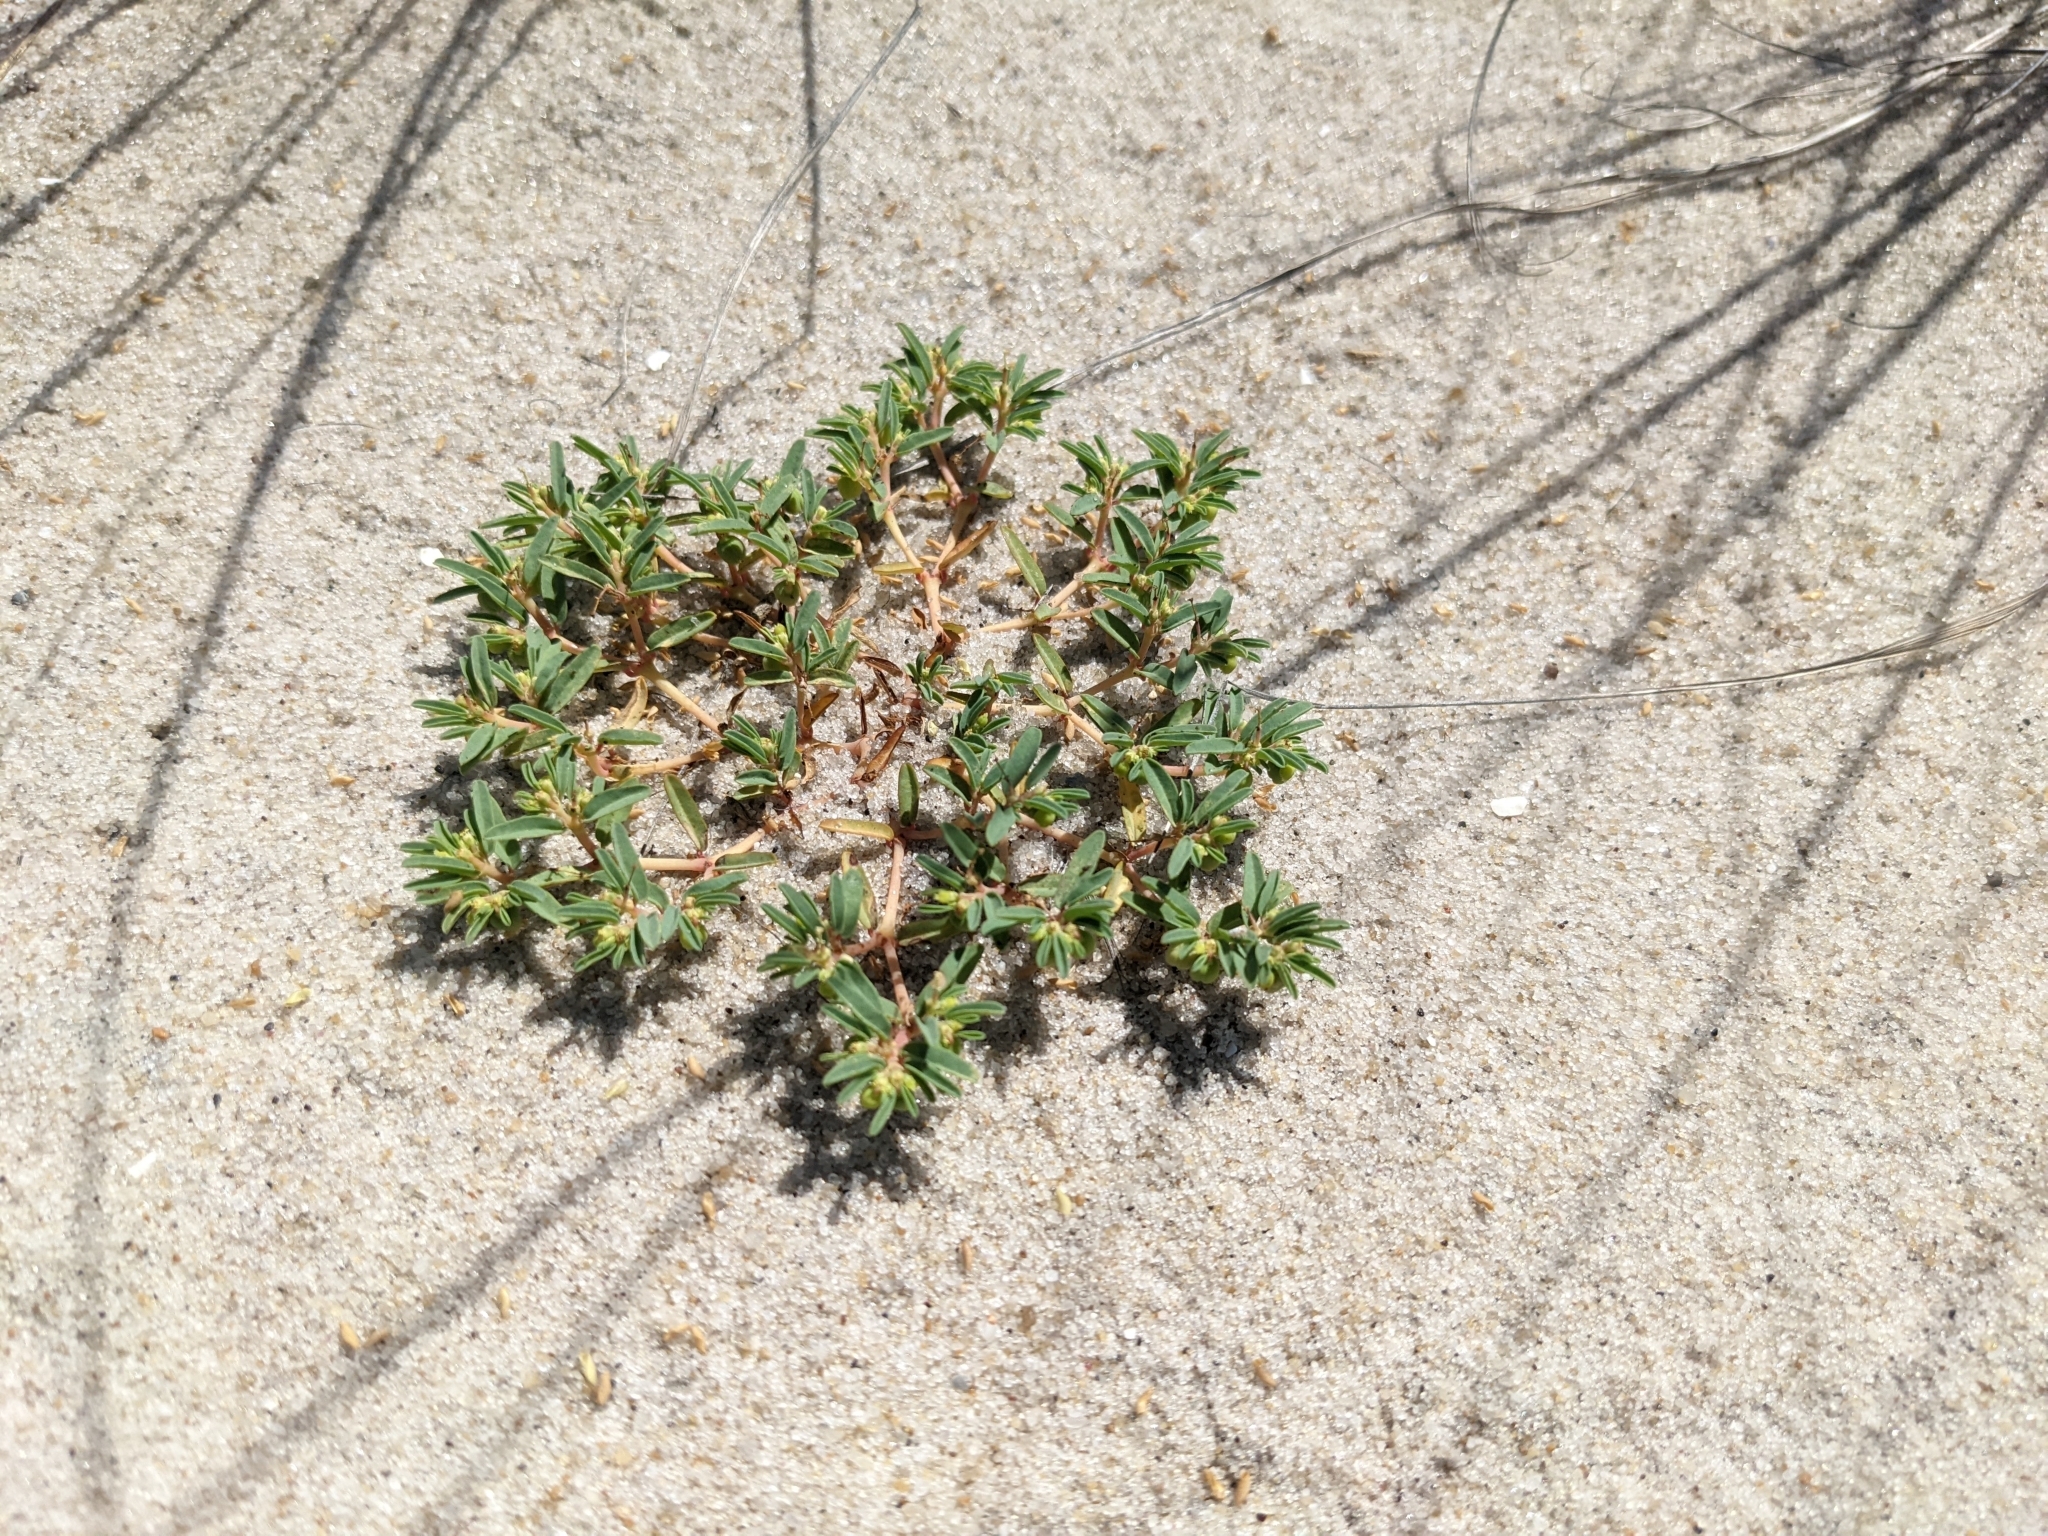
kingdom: Plantae
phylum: Tracheophyta
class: Magnoliopsida
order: Malpighiales
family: Euphorbiaceae
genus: Euphorbia
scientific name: Euphorbia polygonifolia
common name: Knotweed spurge
